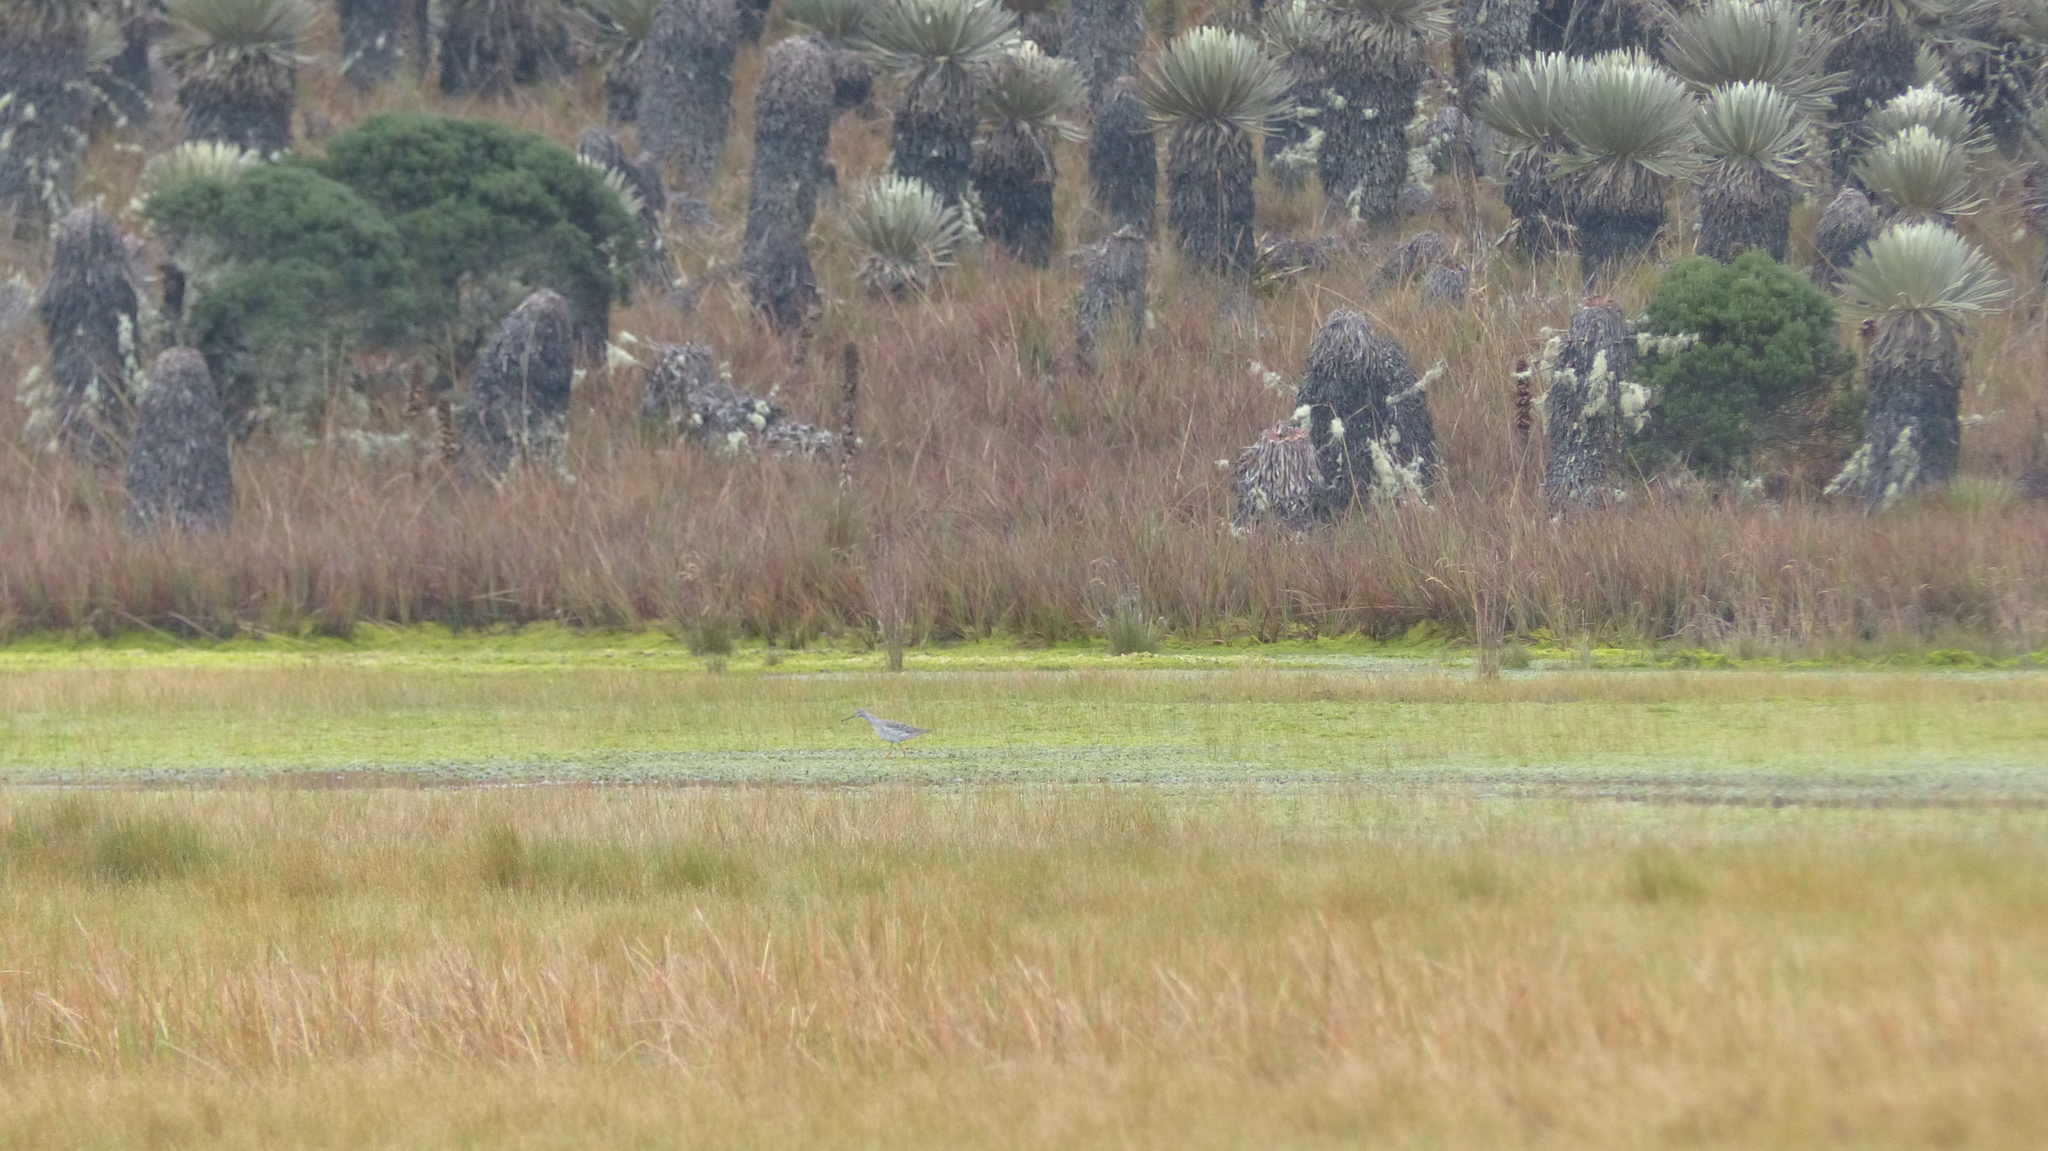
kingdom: Animalia
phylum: Chordata
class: Aves
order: Charadriiformes
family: Scolopacidae
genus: Tringa
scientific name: Tringa melanoleuca
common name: Greater yellowlegs
